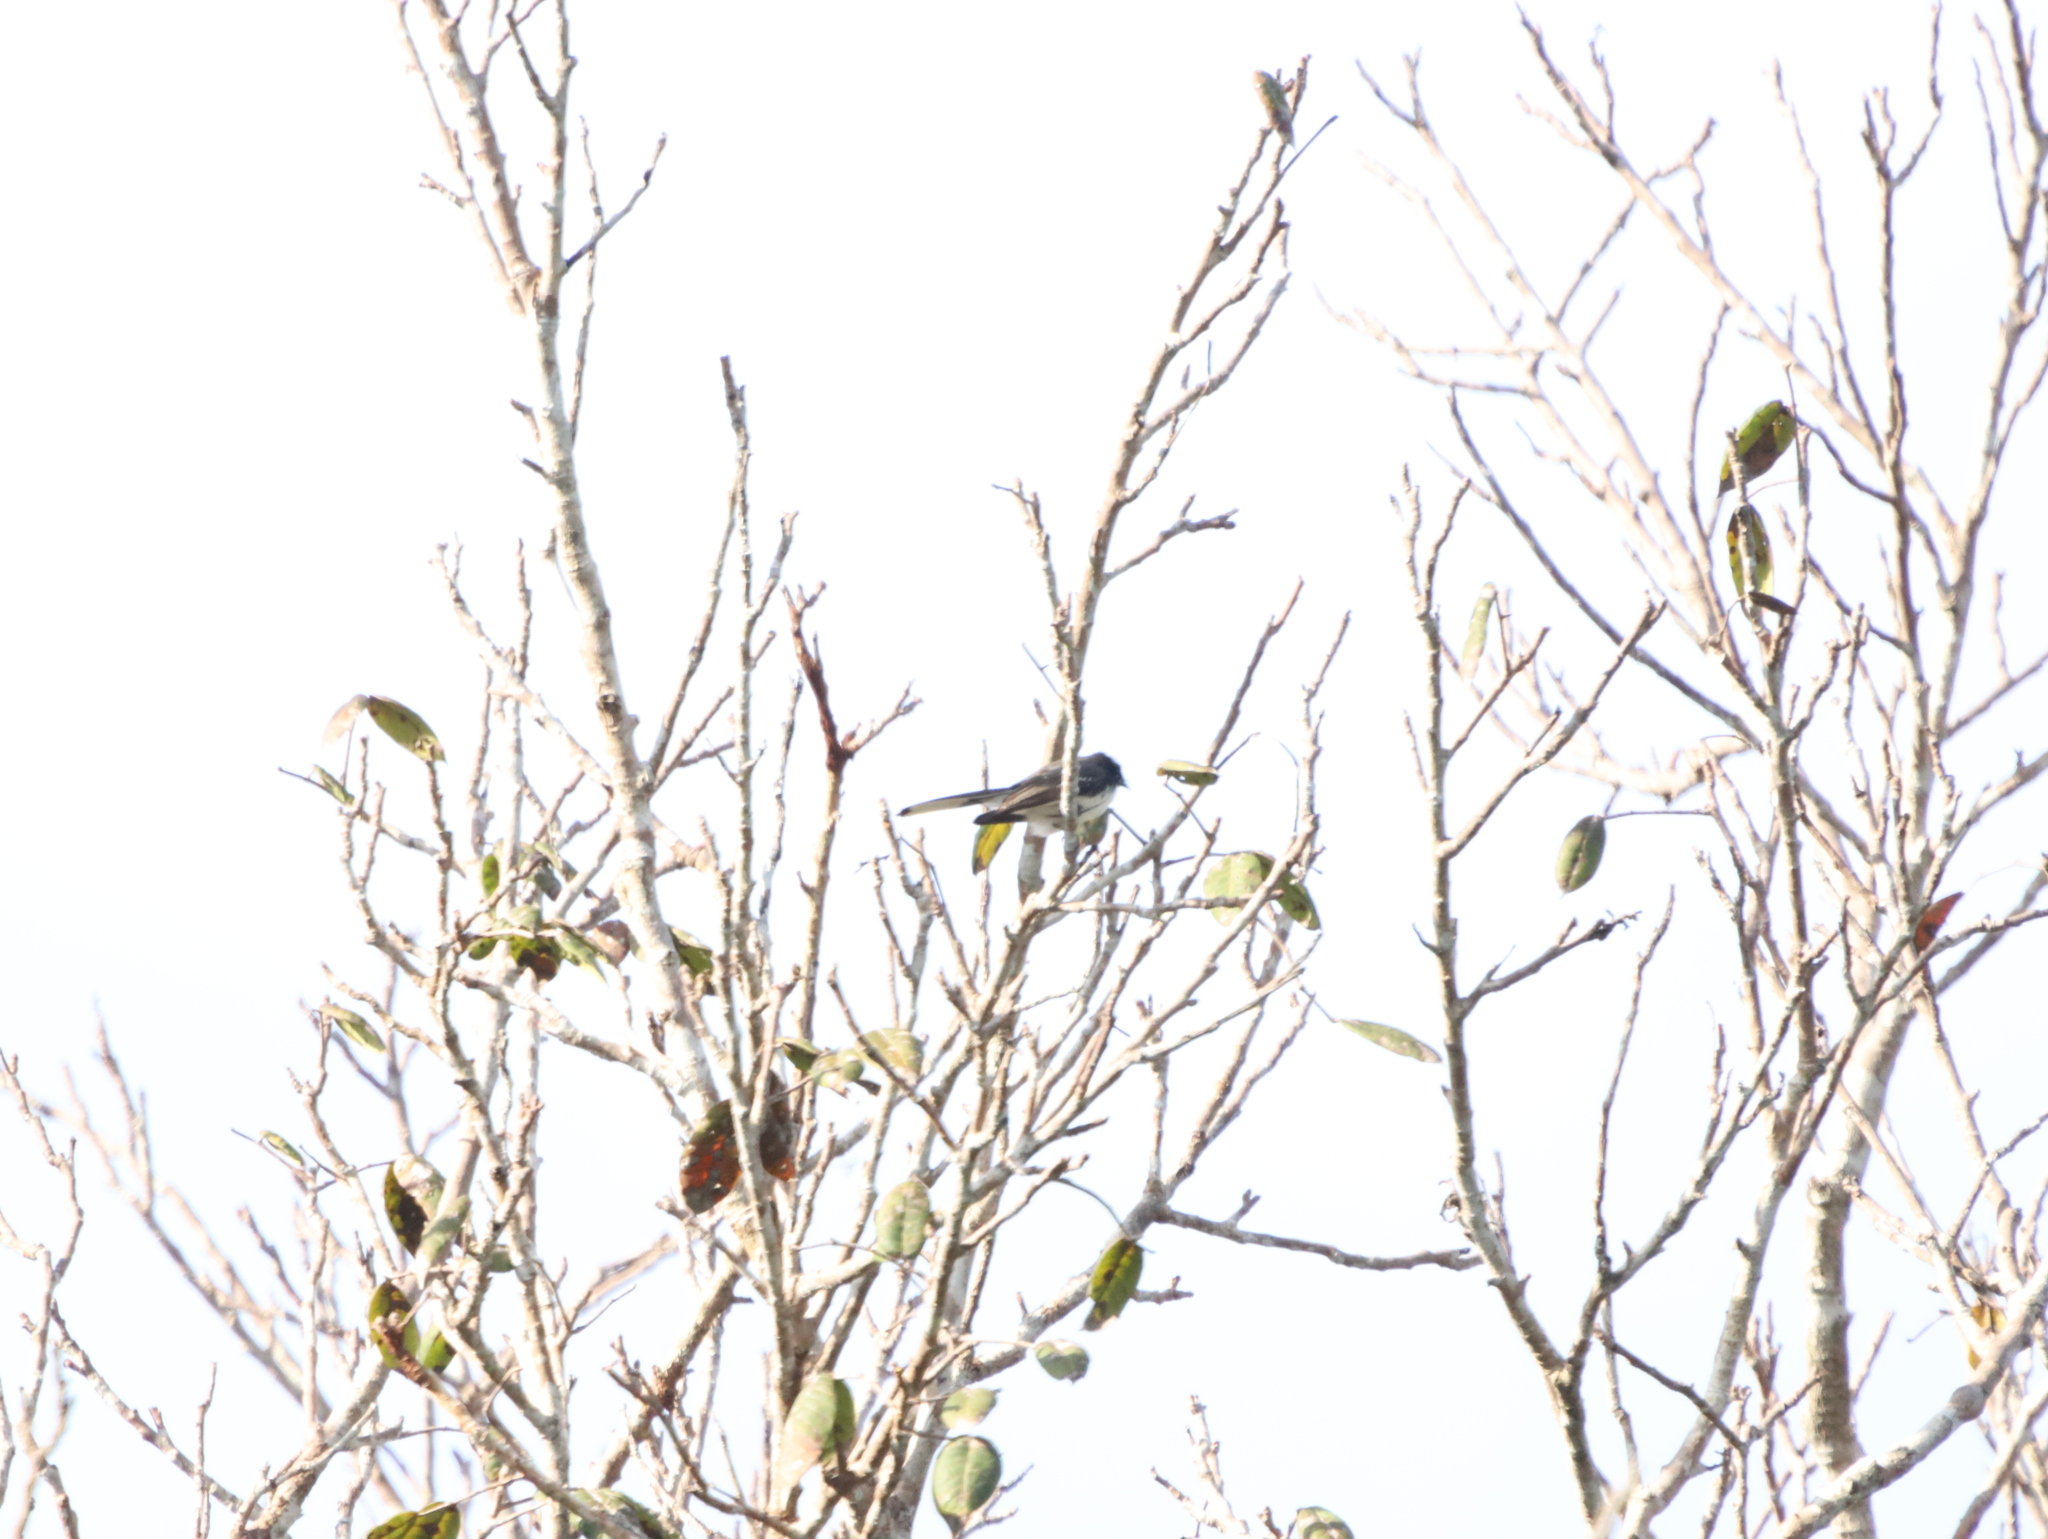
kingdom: Animalia
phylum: Chordata
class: Aves
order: Passeriformes
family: Rhipiduridae
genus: Rhipidura
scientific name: Rhipidura aureola
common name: White-browed fantail
